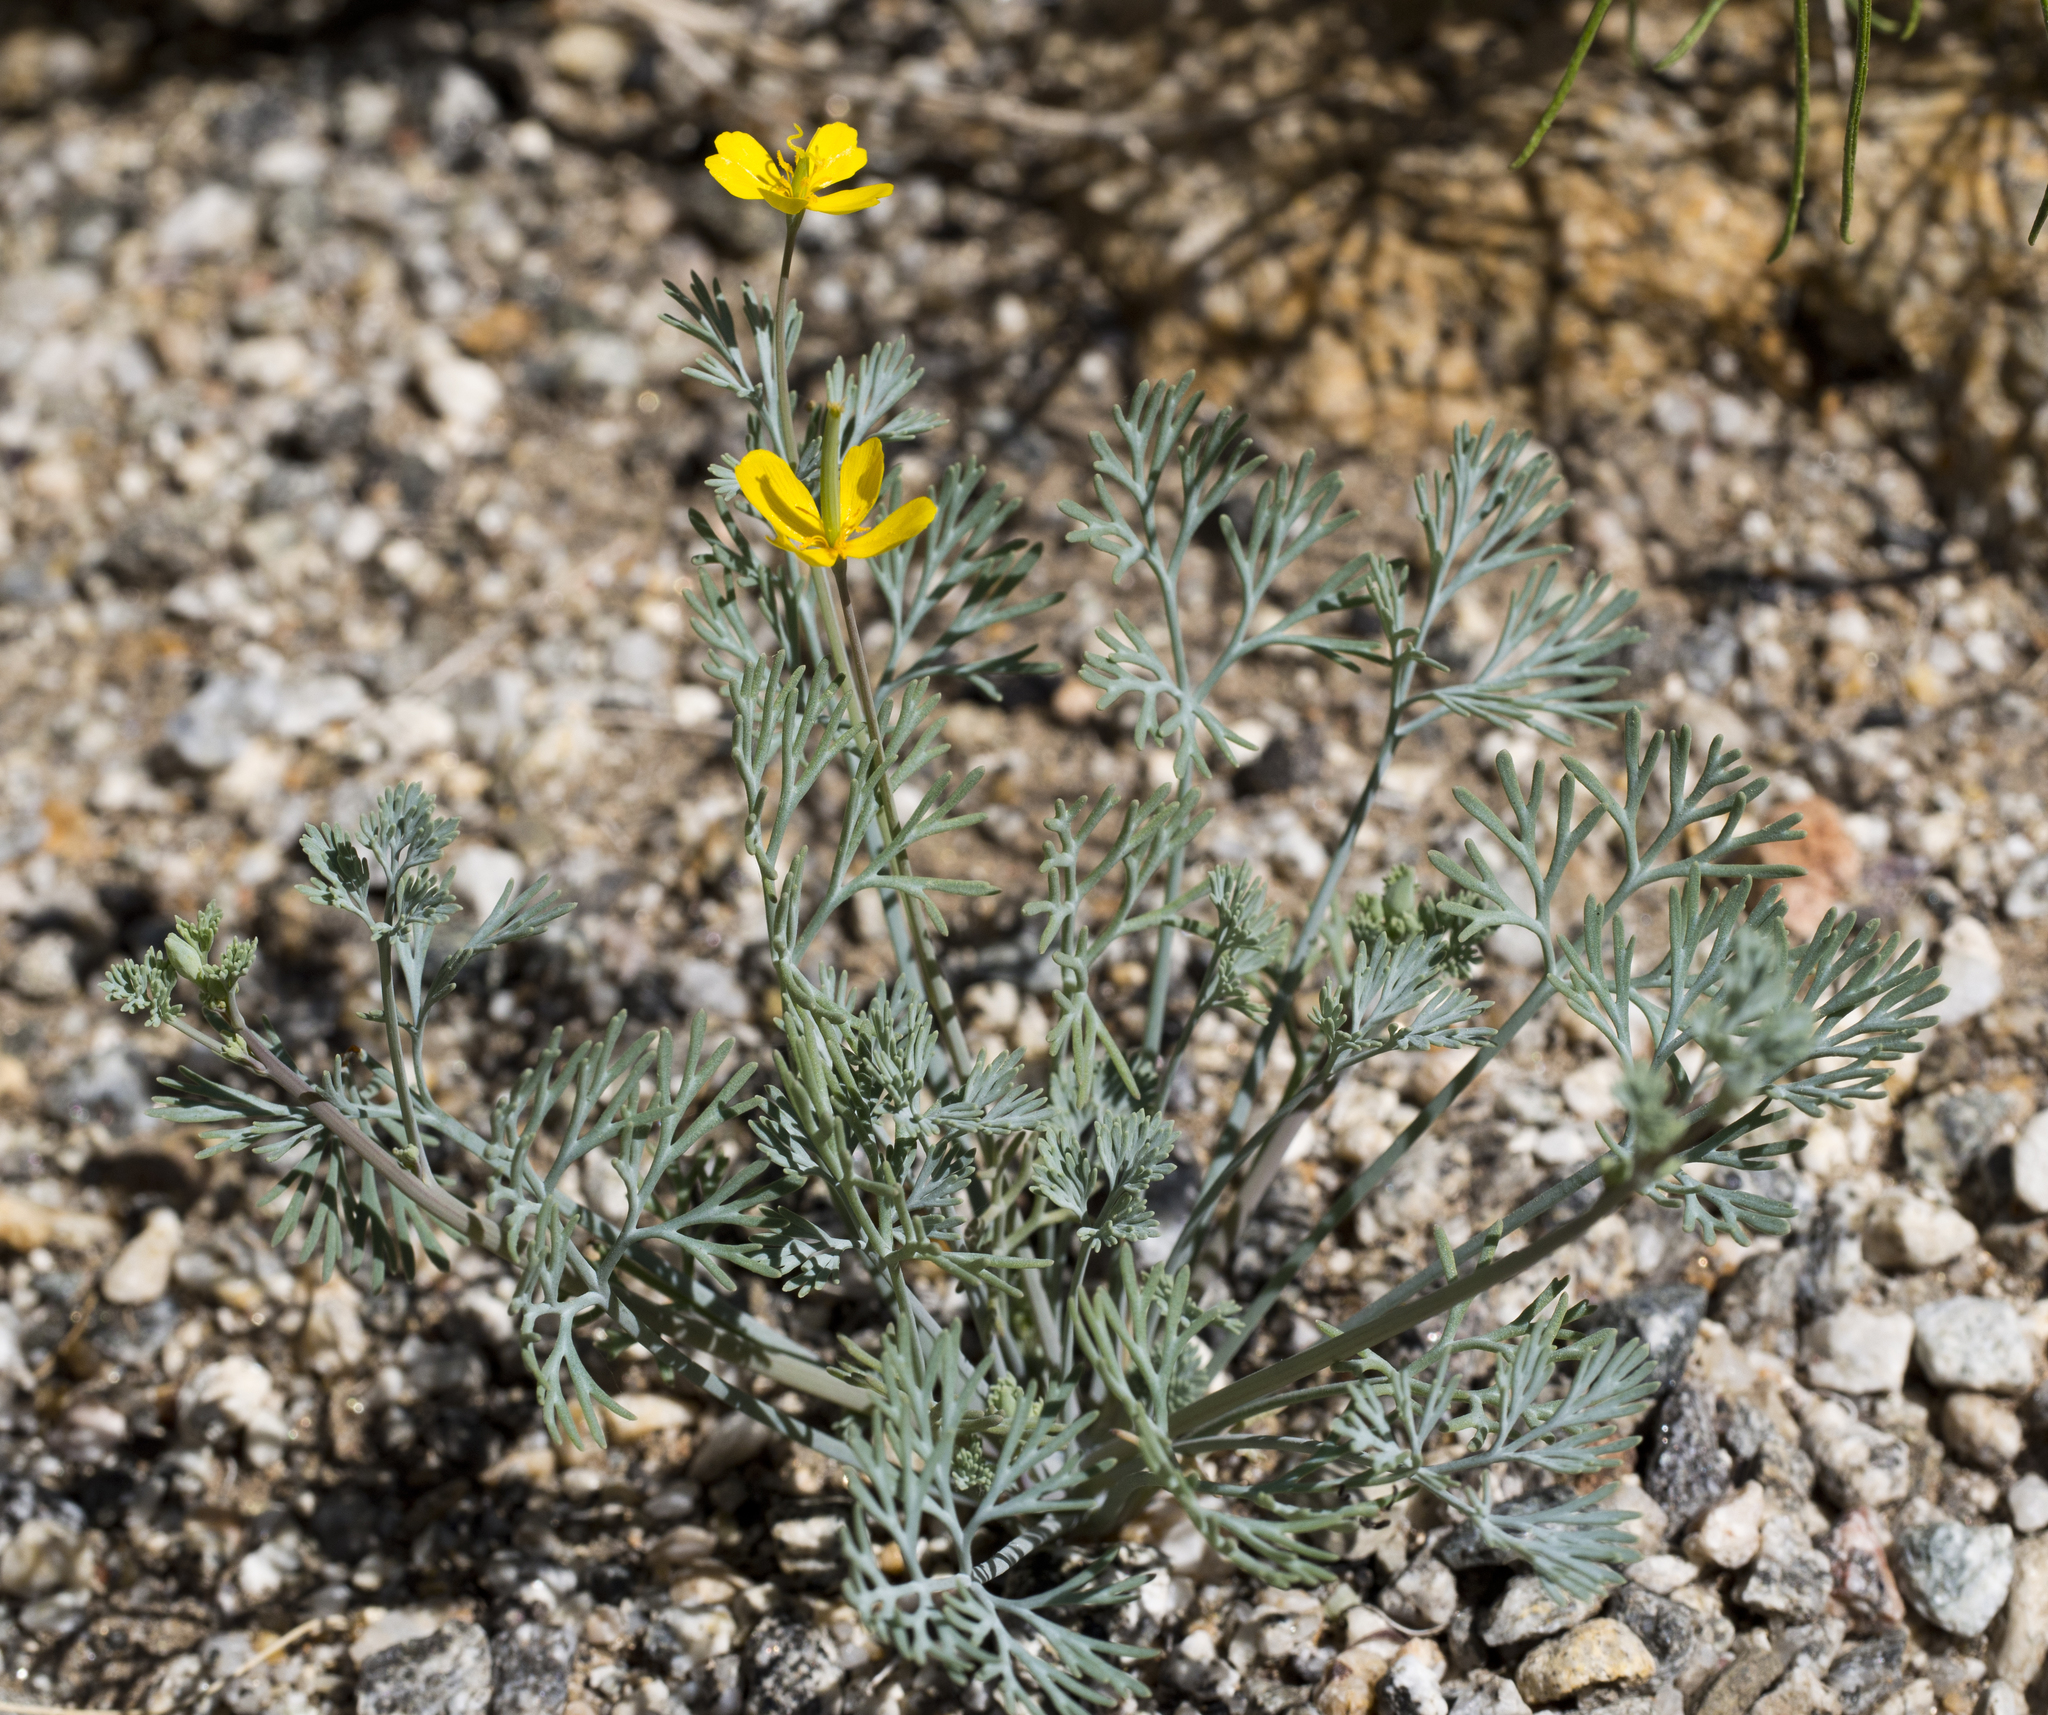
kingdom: Plantae
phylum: Tracheophyta
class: Magnoliopsida
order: Ranunculales
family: Papaveraceae
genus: Eschscholzia
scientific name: Eschscholzia minutiflora
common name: Small-flower california-poppy
